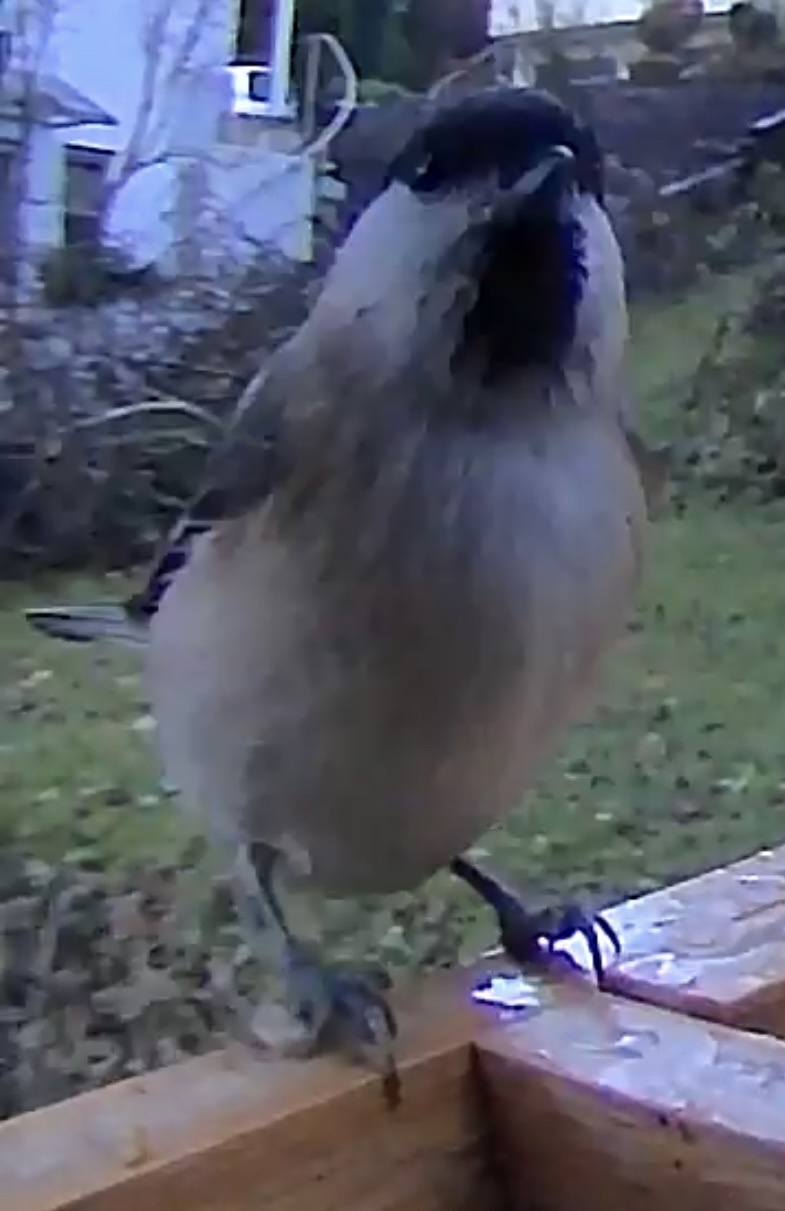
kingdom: Animalia
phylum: Chordata
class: Aves
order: Passeriformes
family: Paridae
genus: Poecile
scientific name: Poecile palustris
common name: Marsh tit
